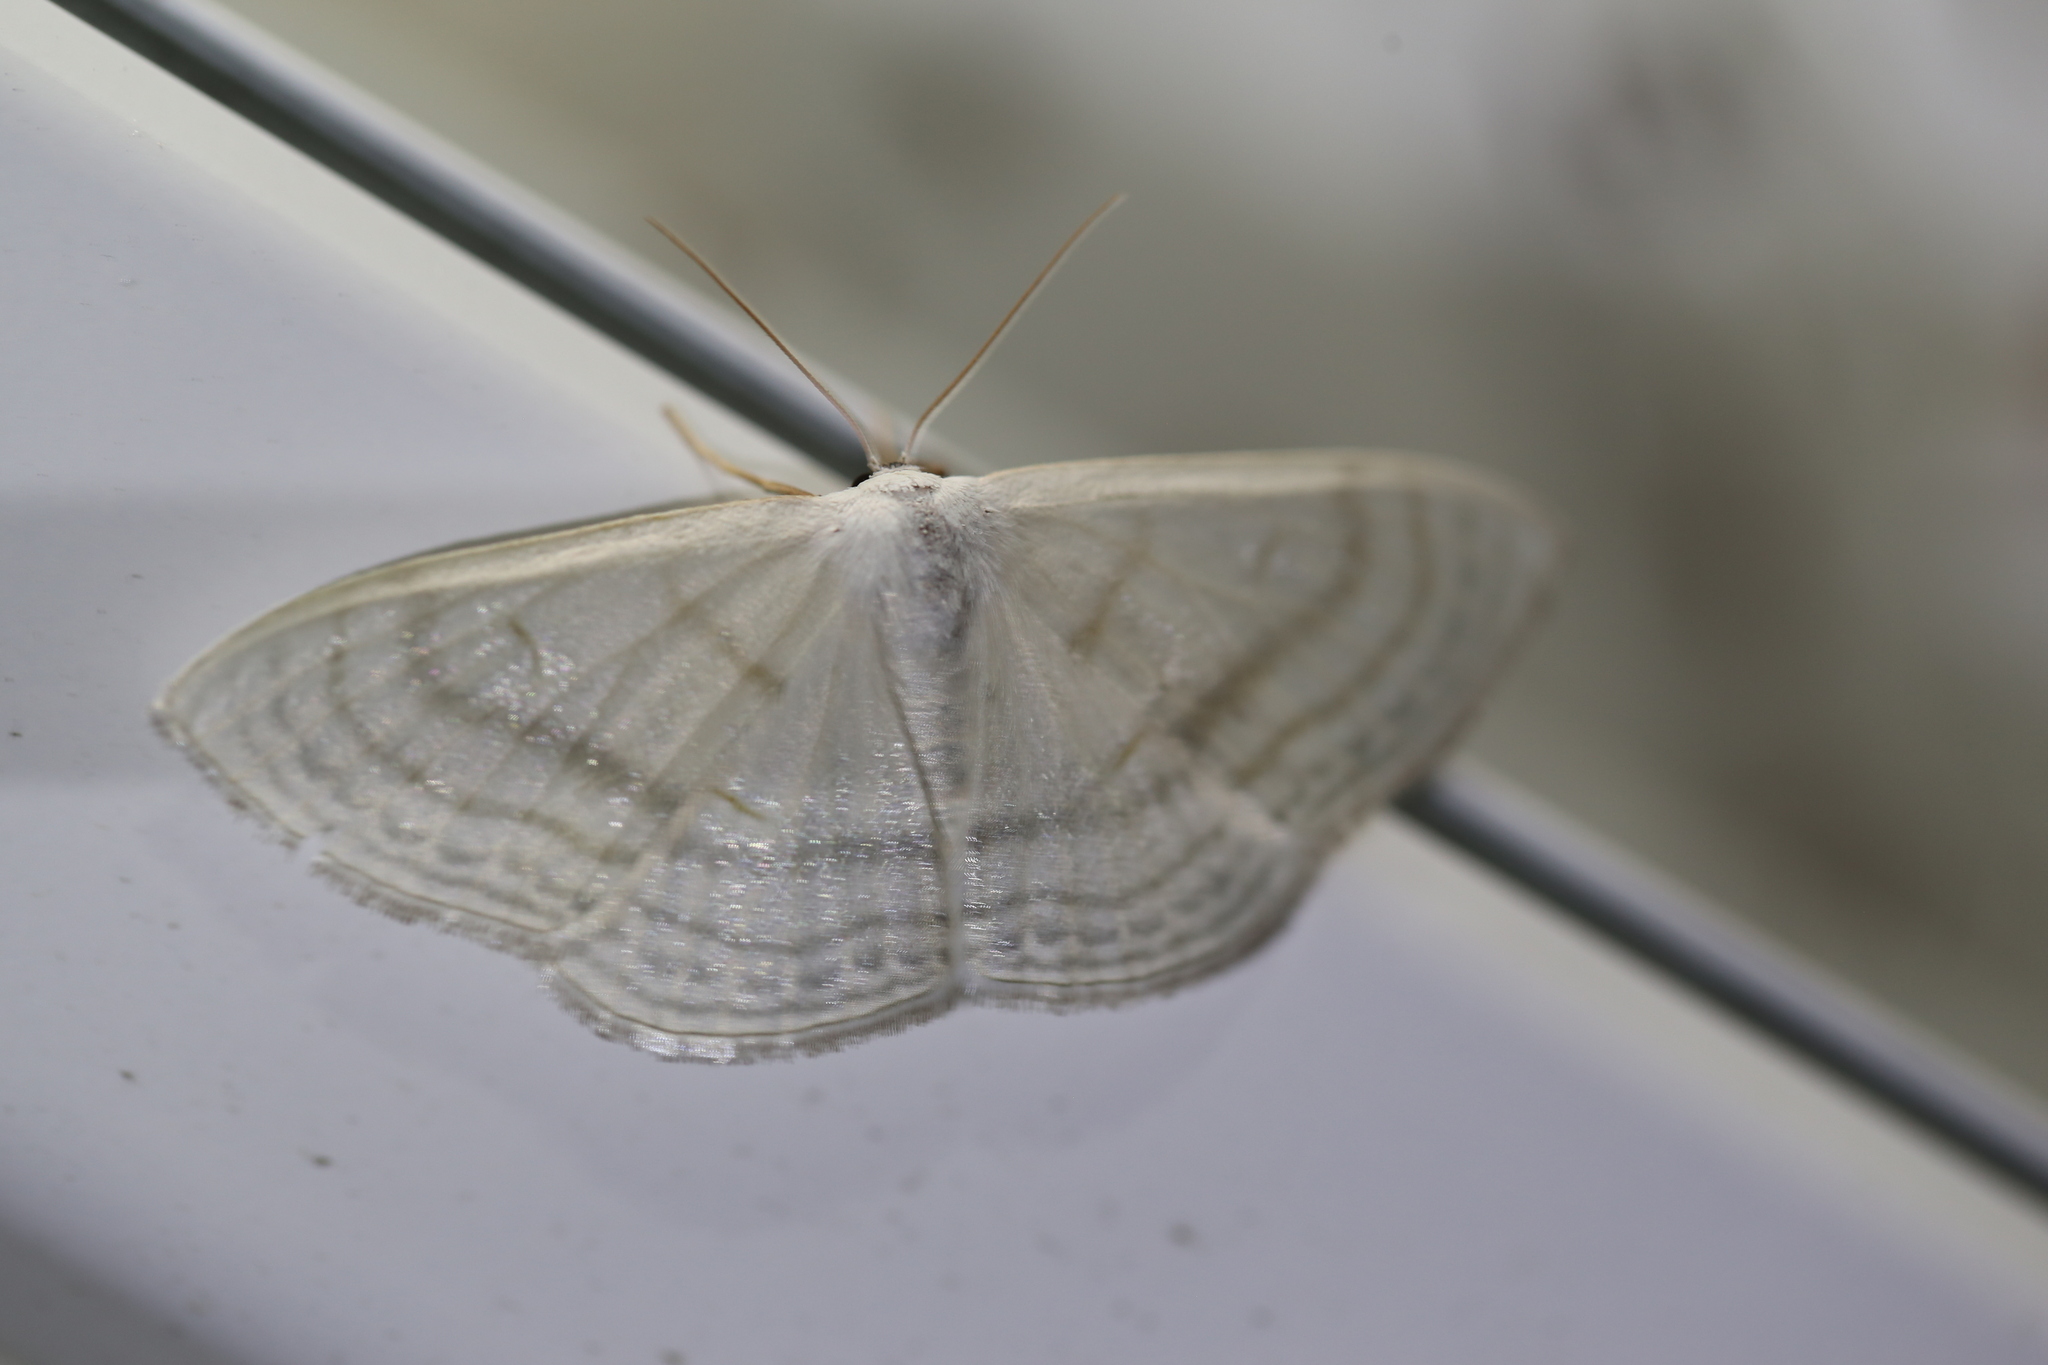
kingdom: Animalia
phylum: Arthropoda
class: Insecta
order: Lepidoptera
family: Geometridae
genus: Problepsis
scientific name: Problepsis clemens
